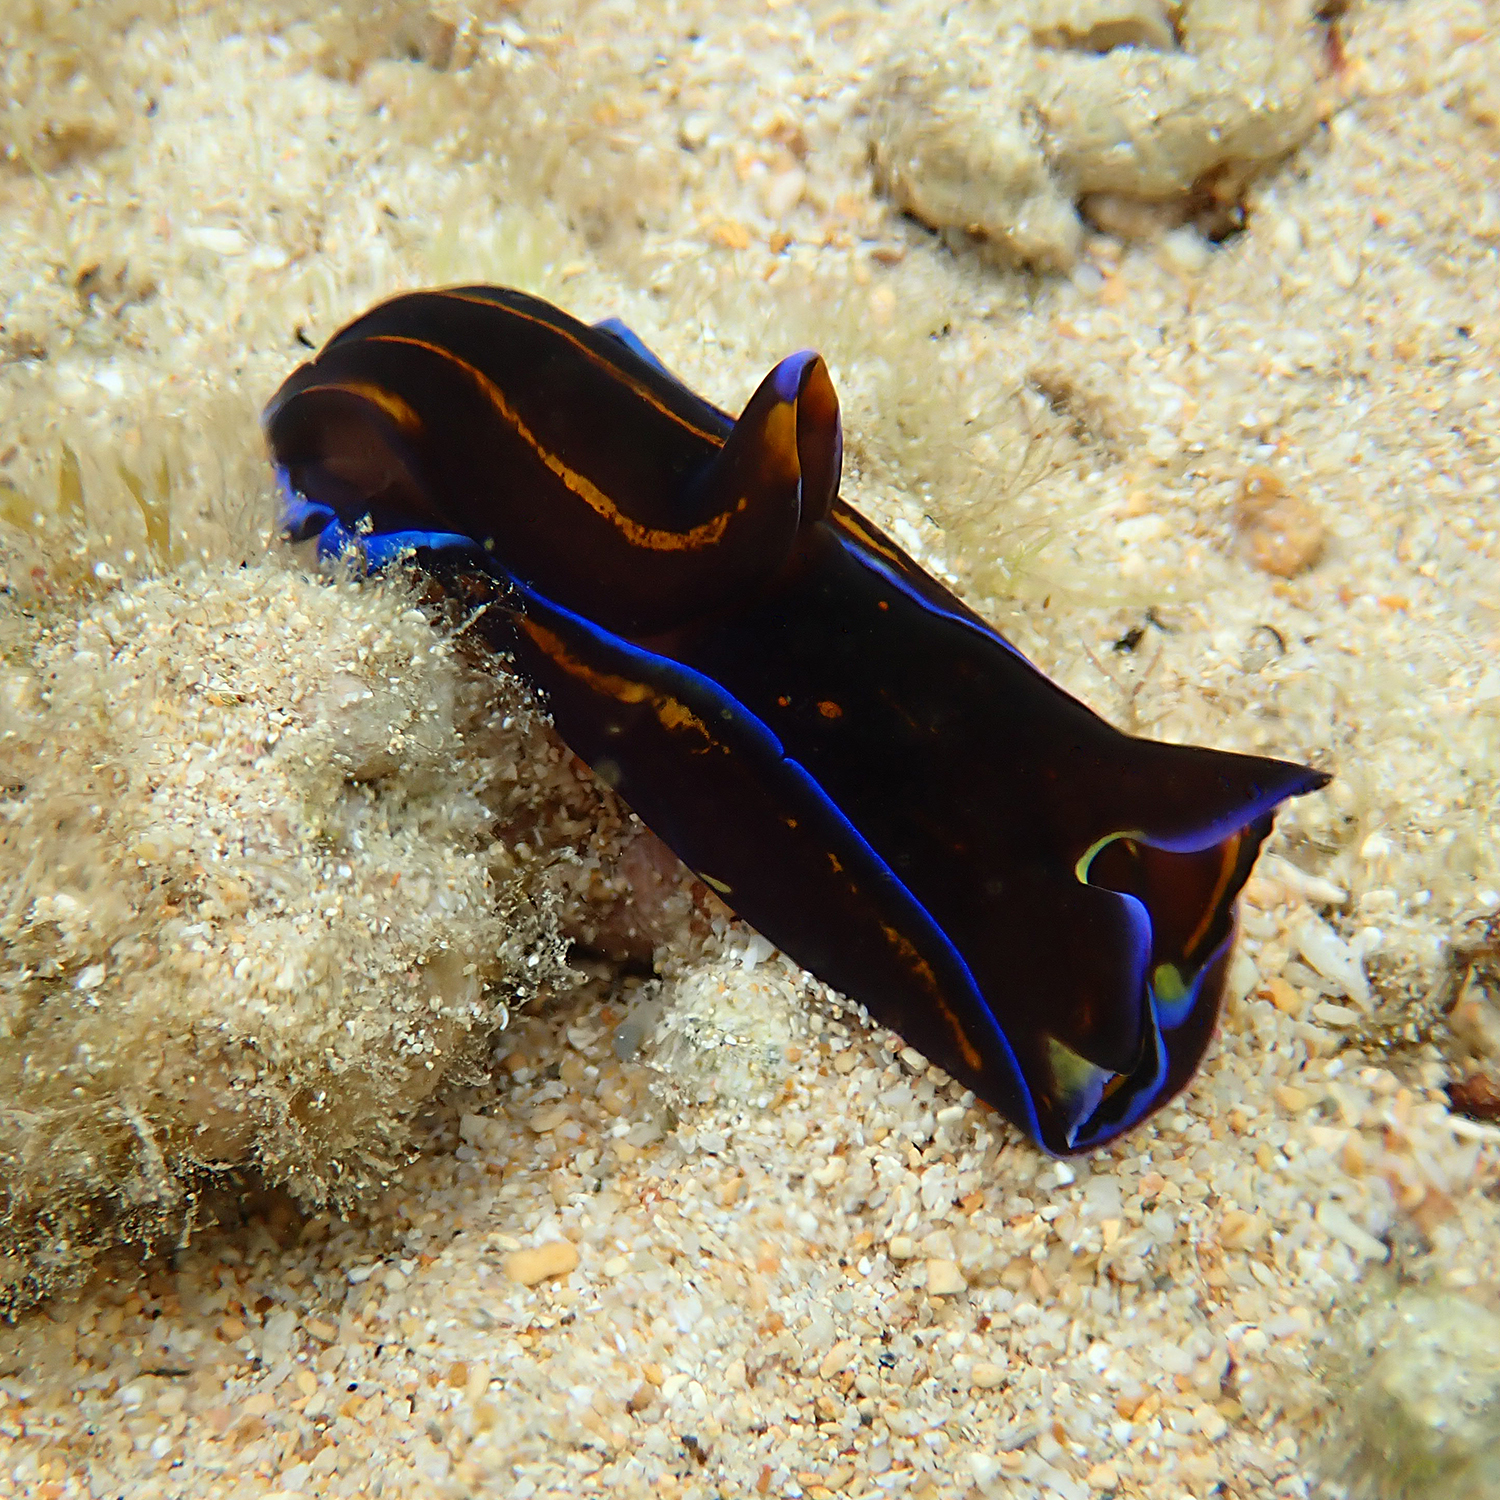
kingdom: Animalia
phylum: Mollusca
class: Gastropoda
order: Cephalaspidea
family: Aglajidae
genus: Philinopsis
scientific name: Philinopsis speciosa
